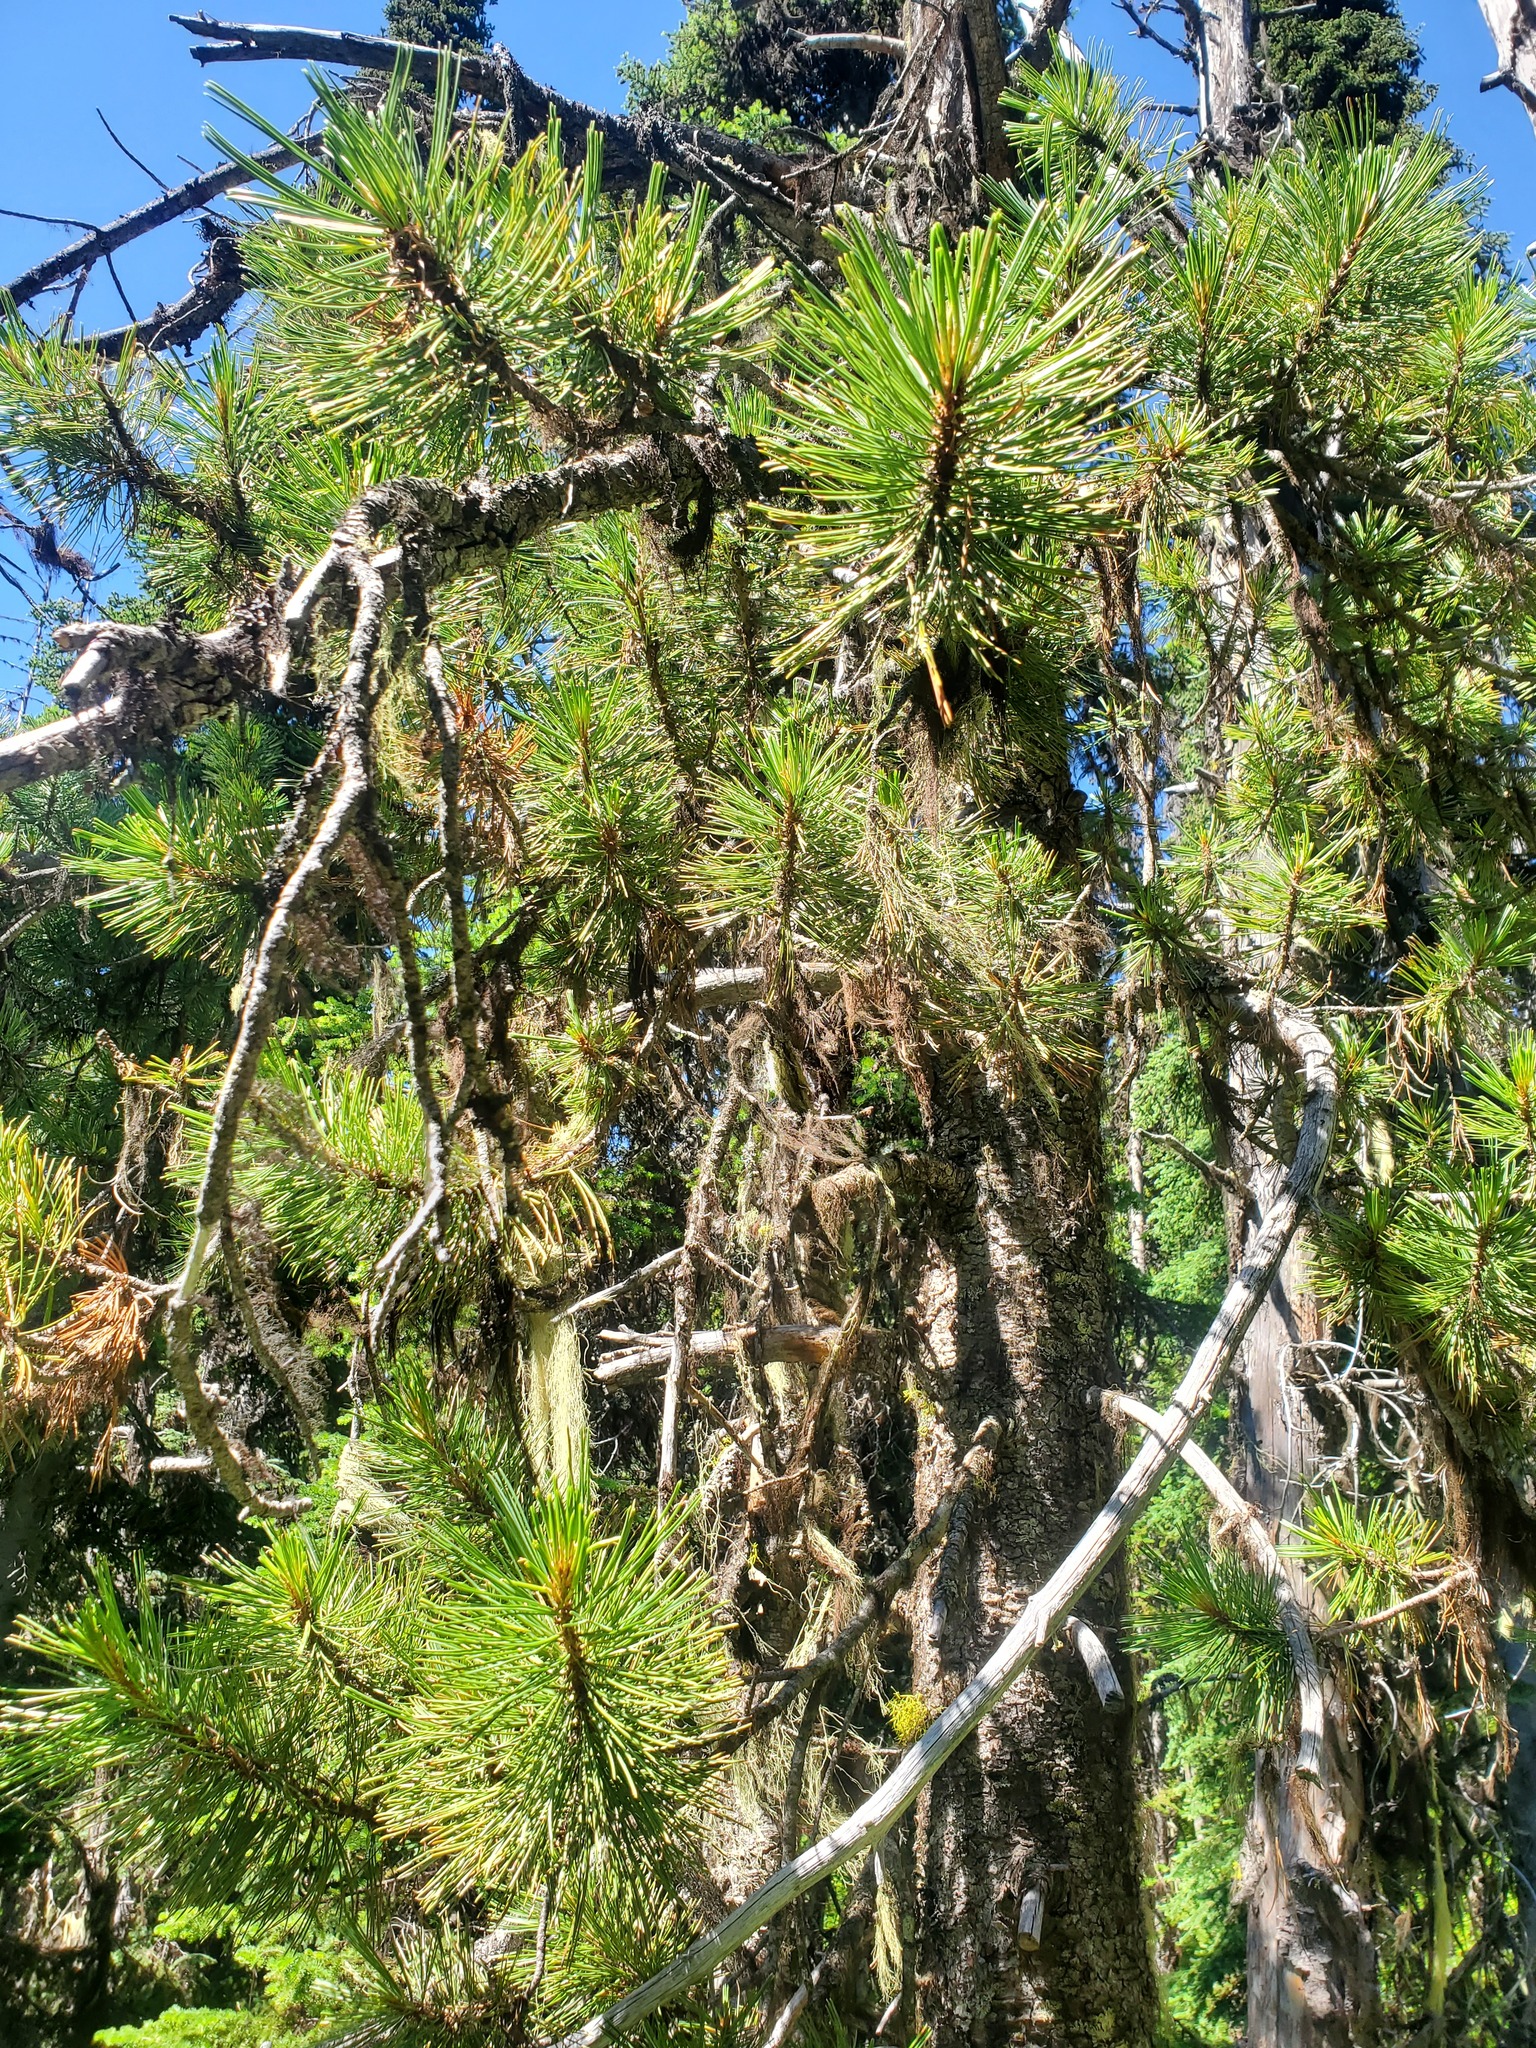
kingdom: Plantae
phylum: Tracheophyta
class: Pinopsida
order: Pinales
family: Pinaceae
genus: Pinus
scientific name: Pinus albicaulis
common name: Whitebark pine
